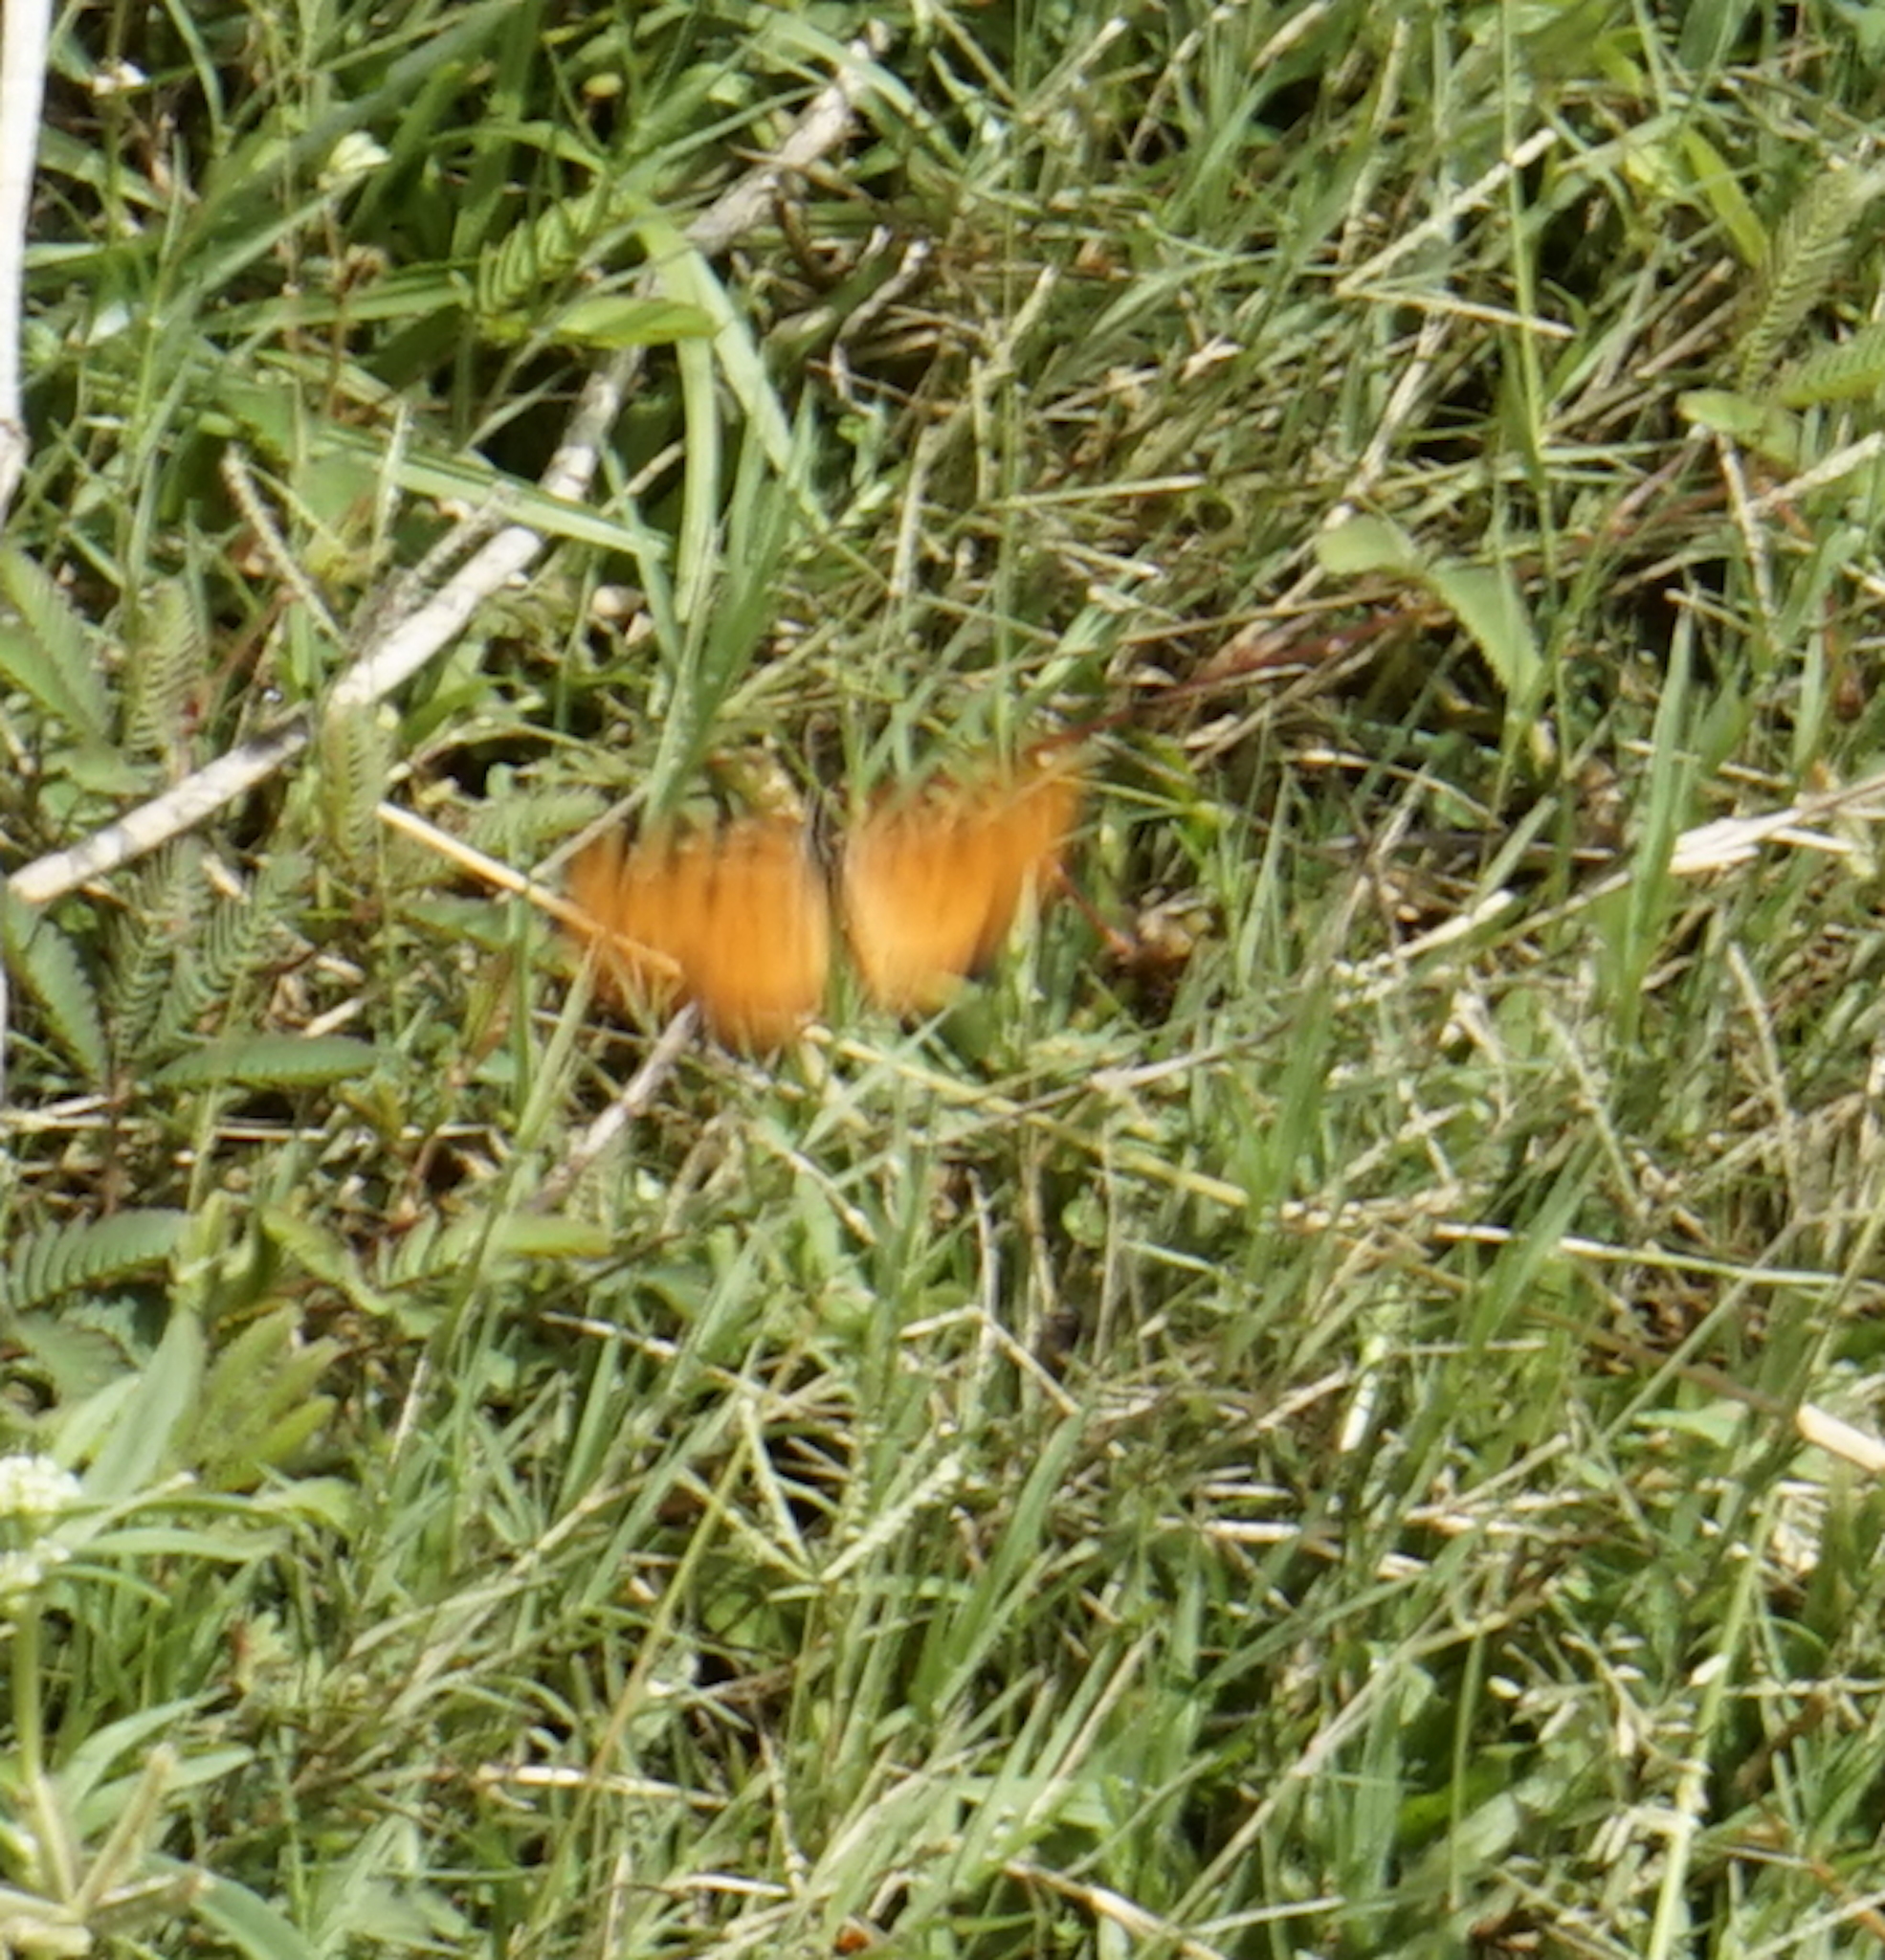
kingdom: Animalia
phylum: Arthropoda
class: Insecta
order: Lepidoptera
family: Nymphalidae
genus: Acraea
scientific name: Acraea terpsicore
